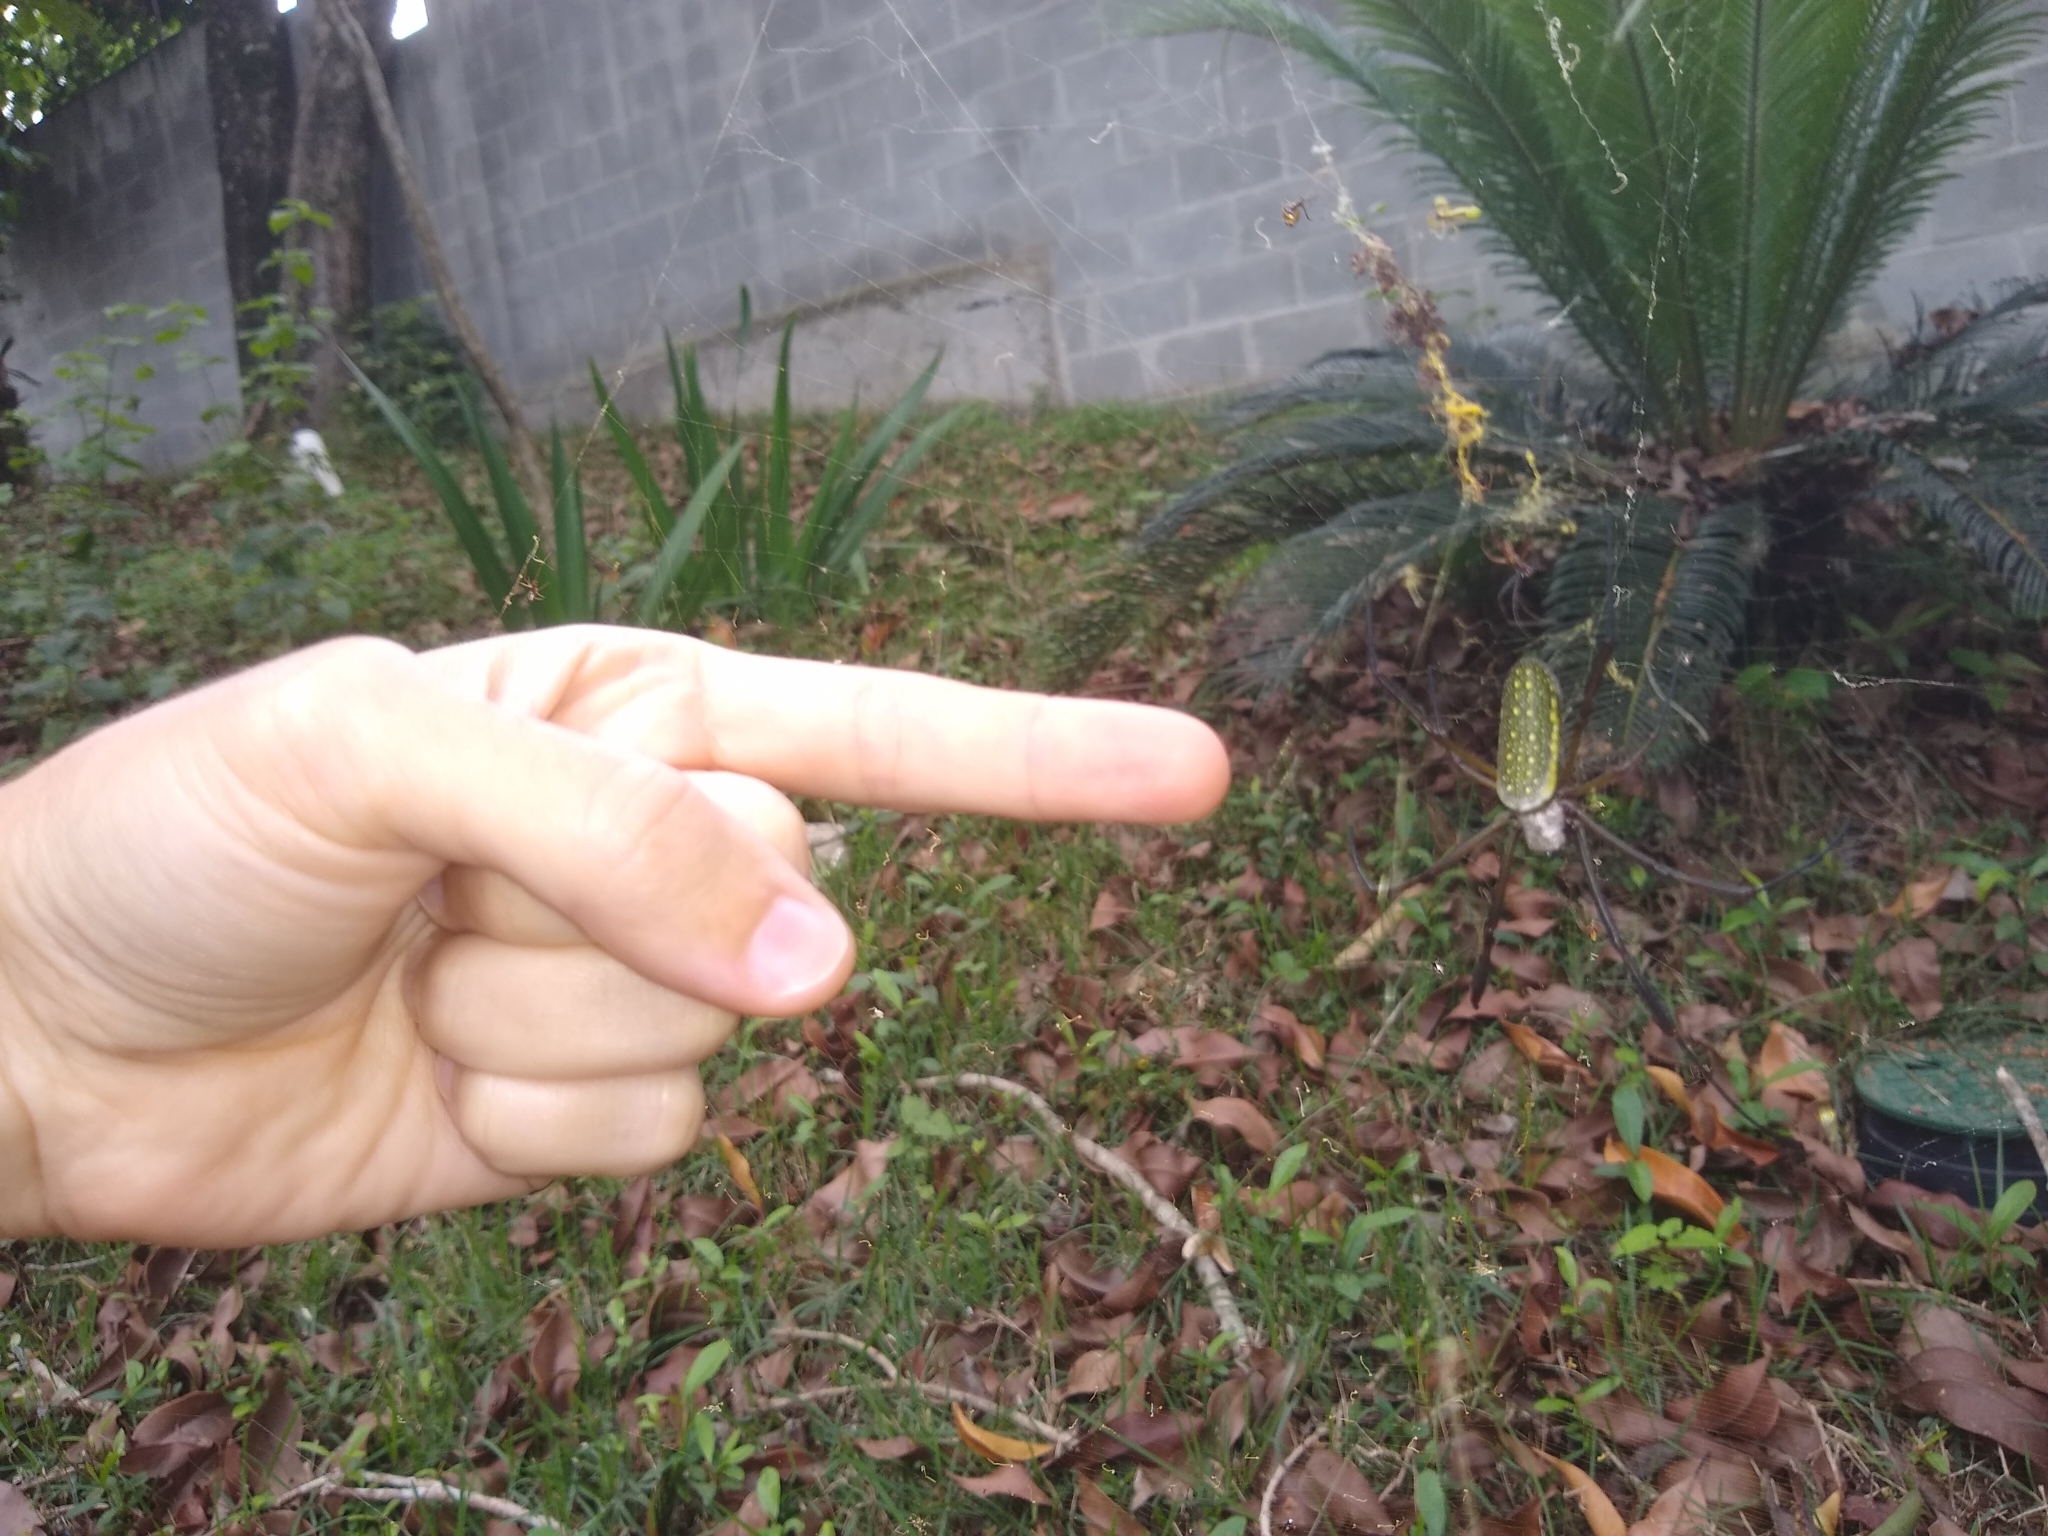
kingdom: Animalia
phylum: Arthropoda
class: Arachnida
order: Araneae
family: Araneidae
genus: Trichonephila
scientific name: Trichonephila clavipes
